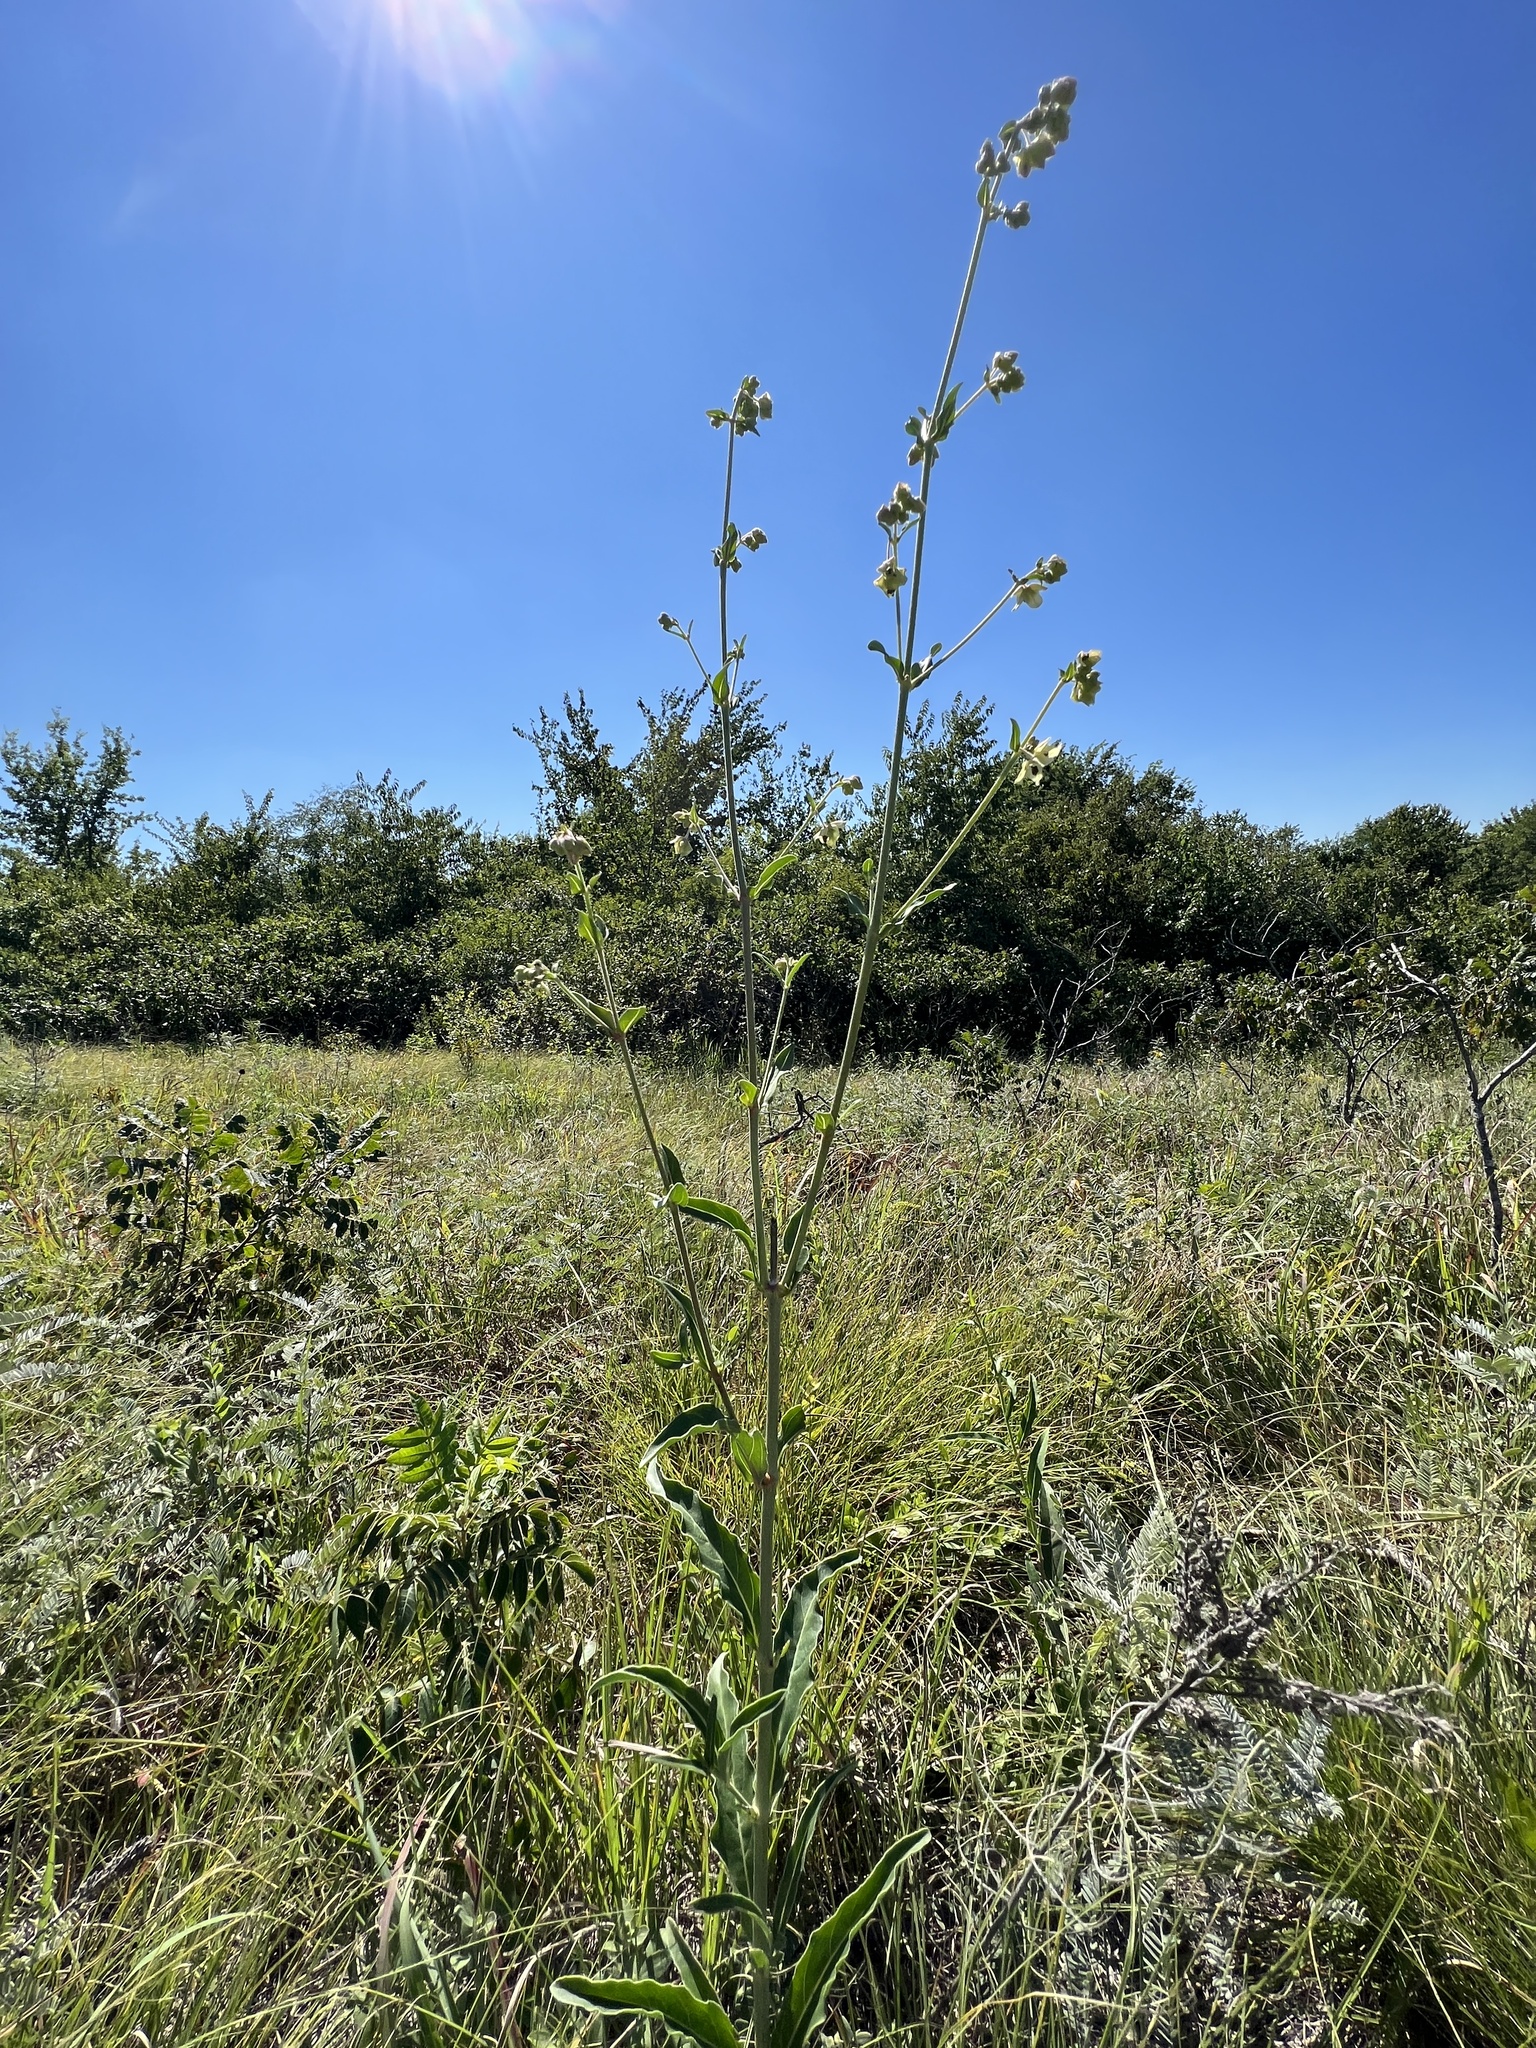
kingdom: Plantae
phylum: Tracheophyta
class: Magnoliopsida
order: Caryophyllales
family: Nyctaginaceae
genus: Mirabilis
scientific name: Mirabilis albida
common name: Hairy four-o'clock
